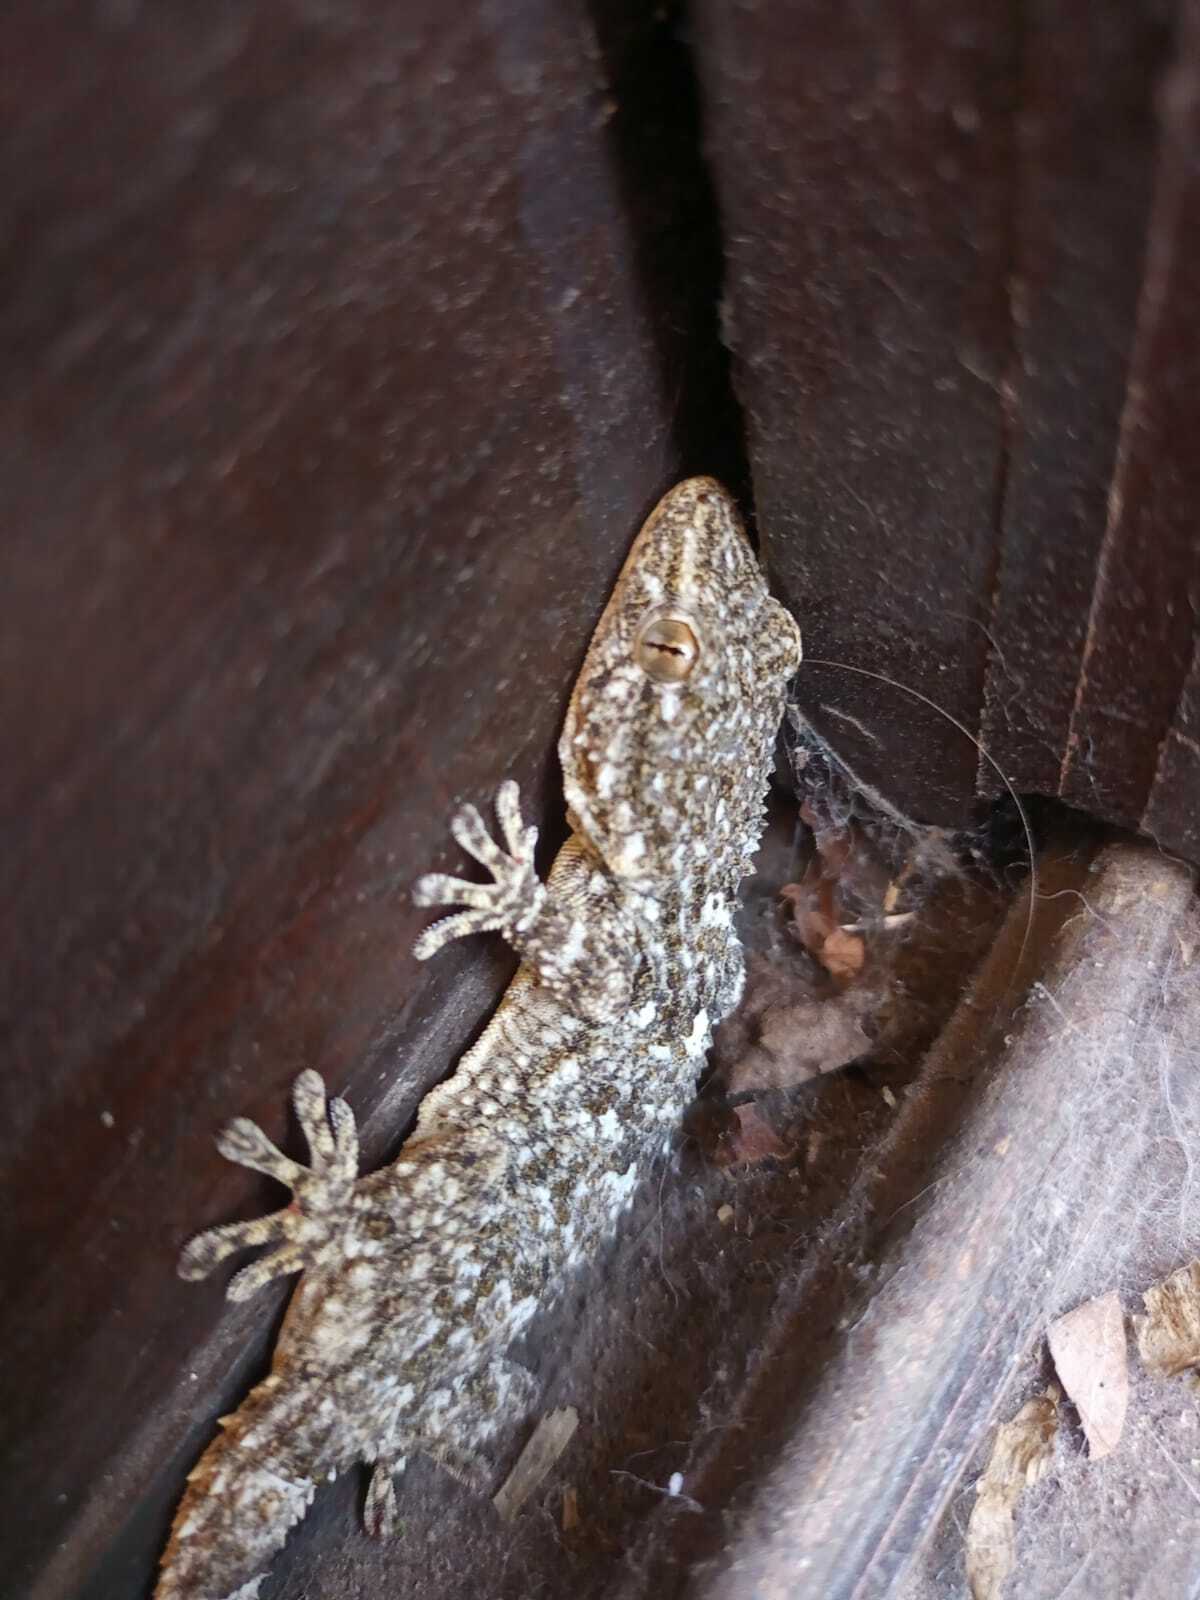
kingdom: Animalia
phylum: Chordata
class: Squamata
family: Phyllodactylidae
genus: Tarentola
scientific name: Tarentola mauritanica
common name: Moorish gecko
